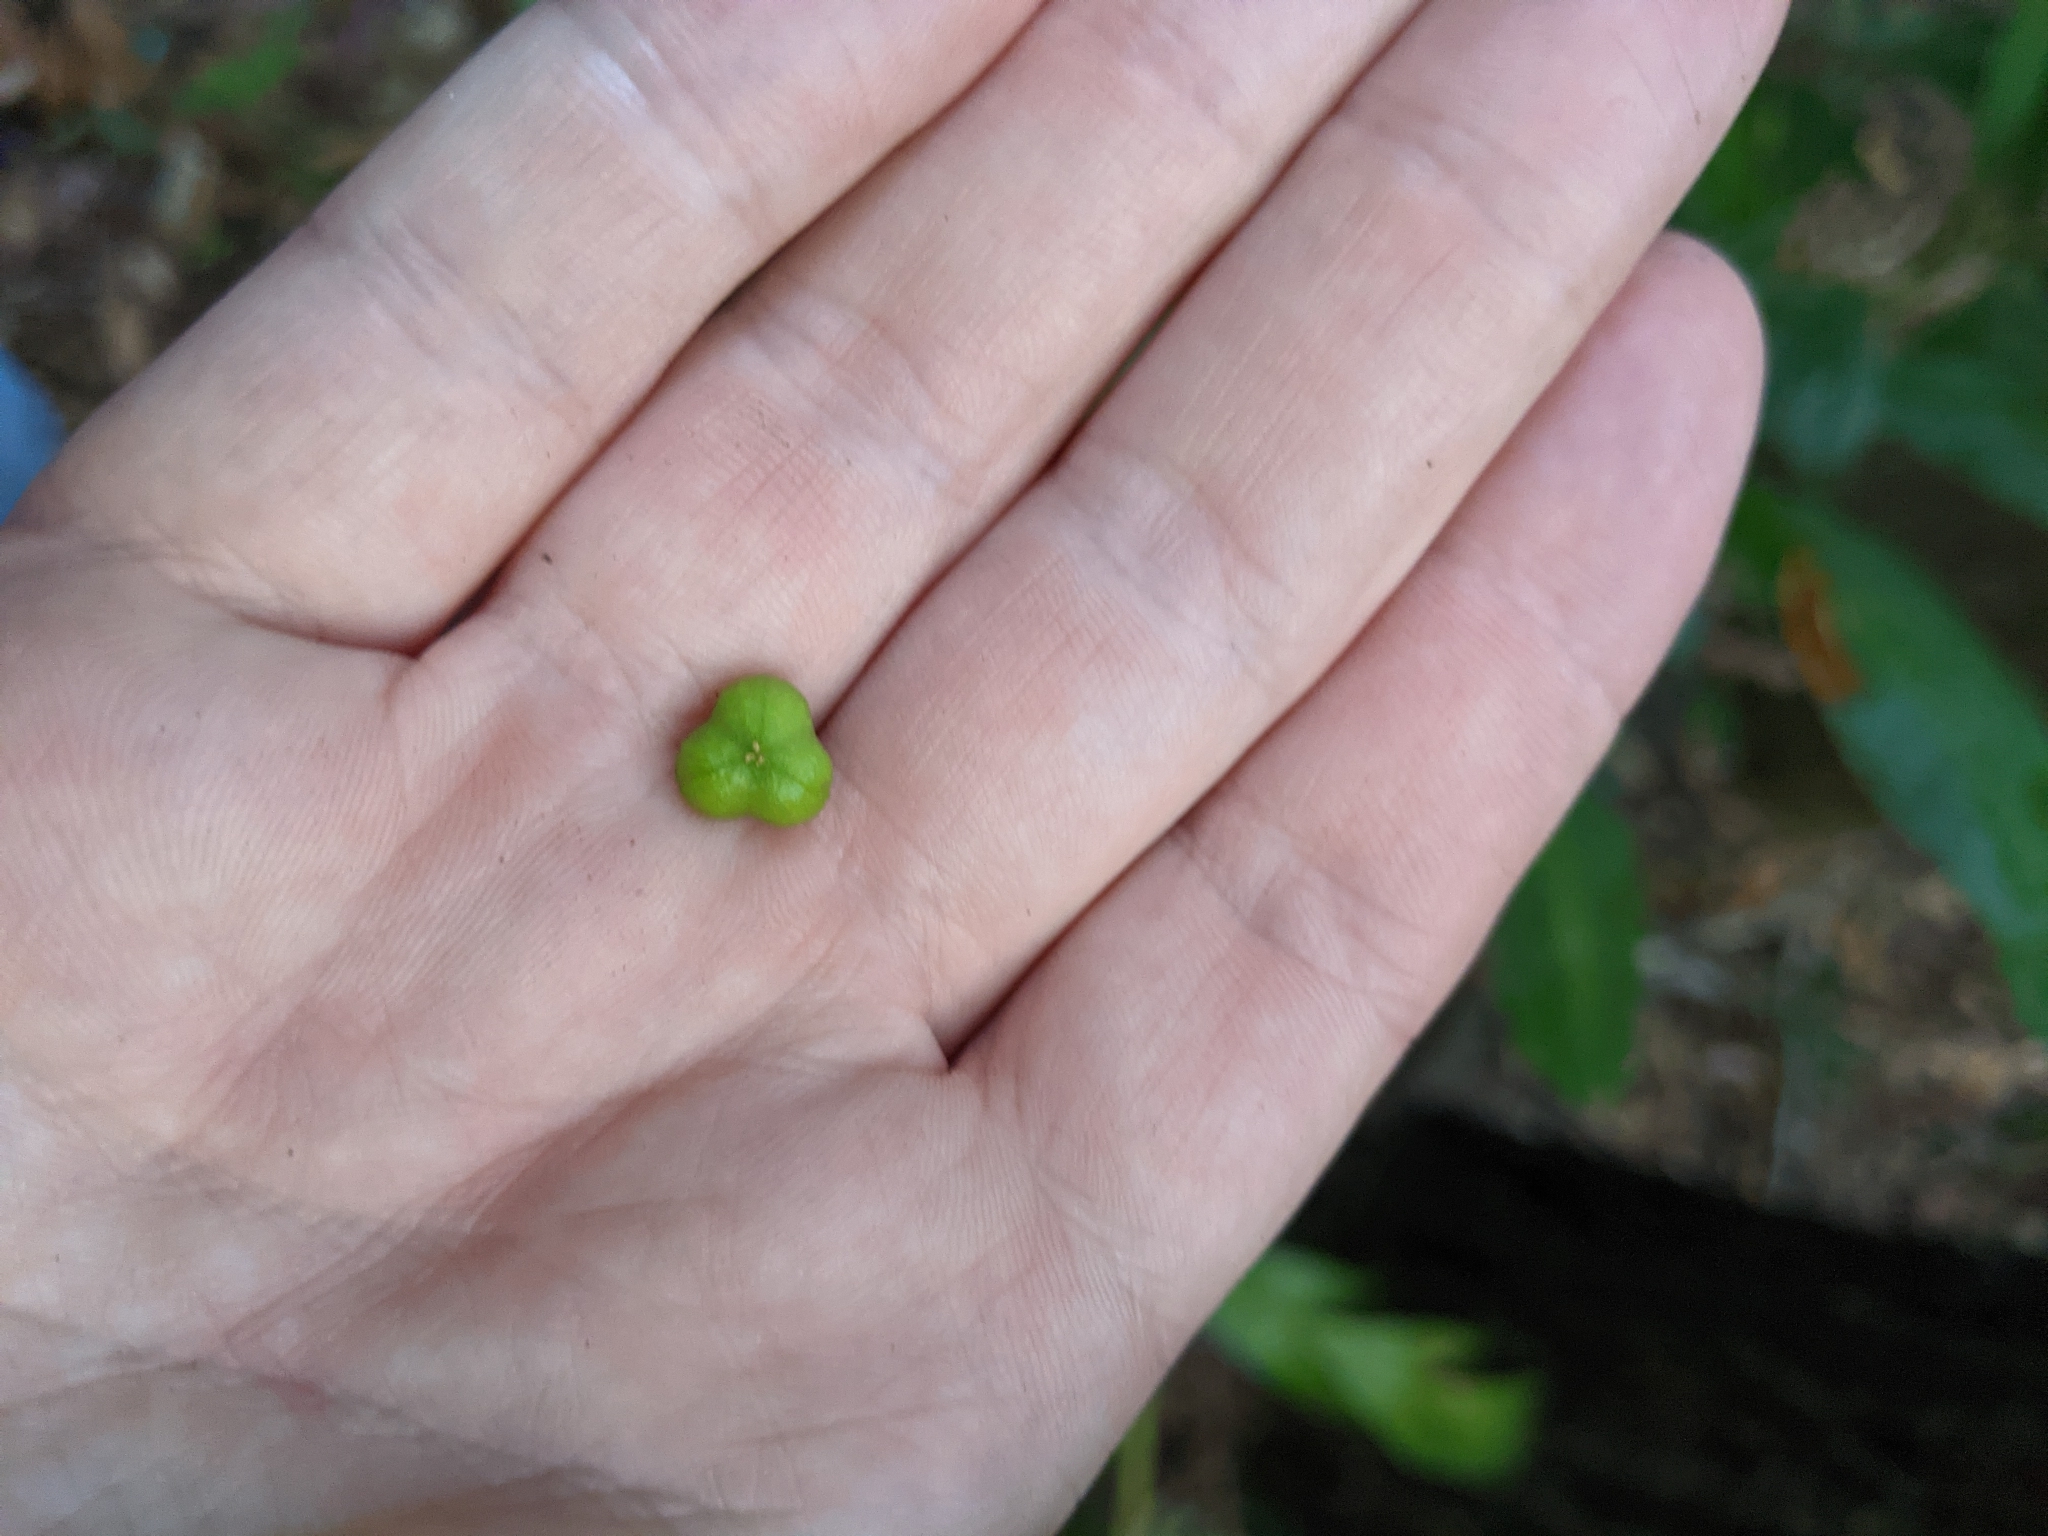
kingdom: Plantae
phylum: Tracheophyta
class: Magnoliopsida
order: Malpighiales
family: Euphorbiaceae
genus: Claoxylon
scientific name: Claoxylon australe
